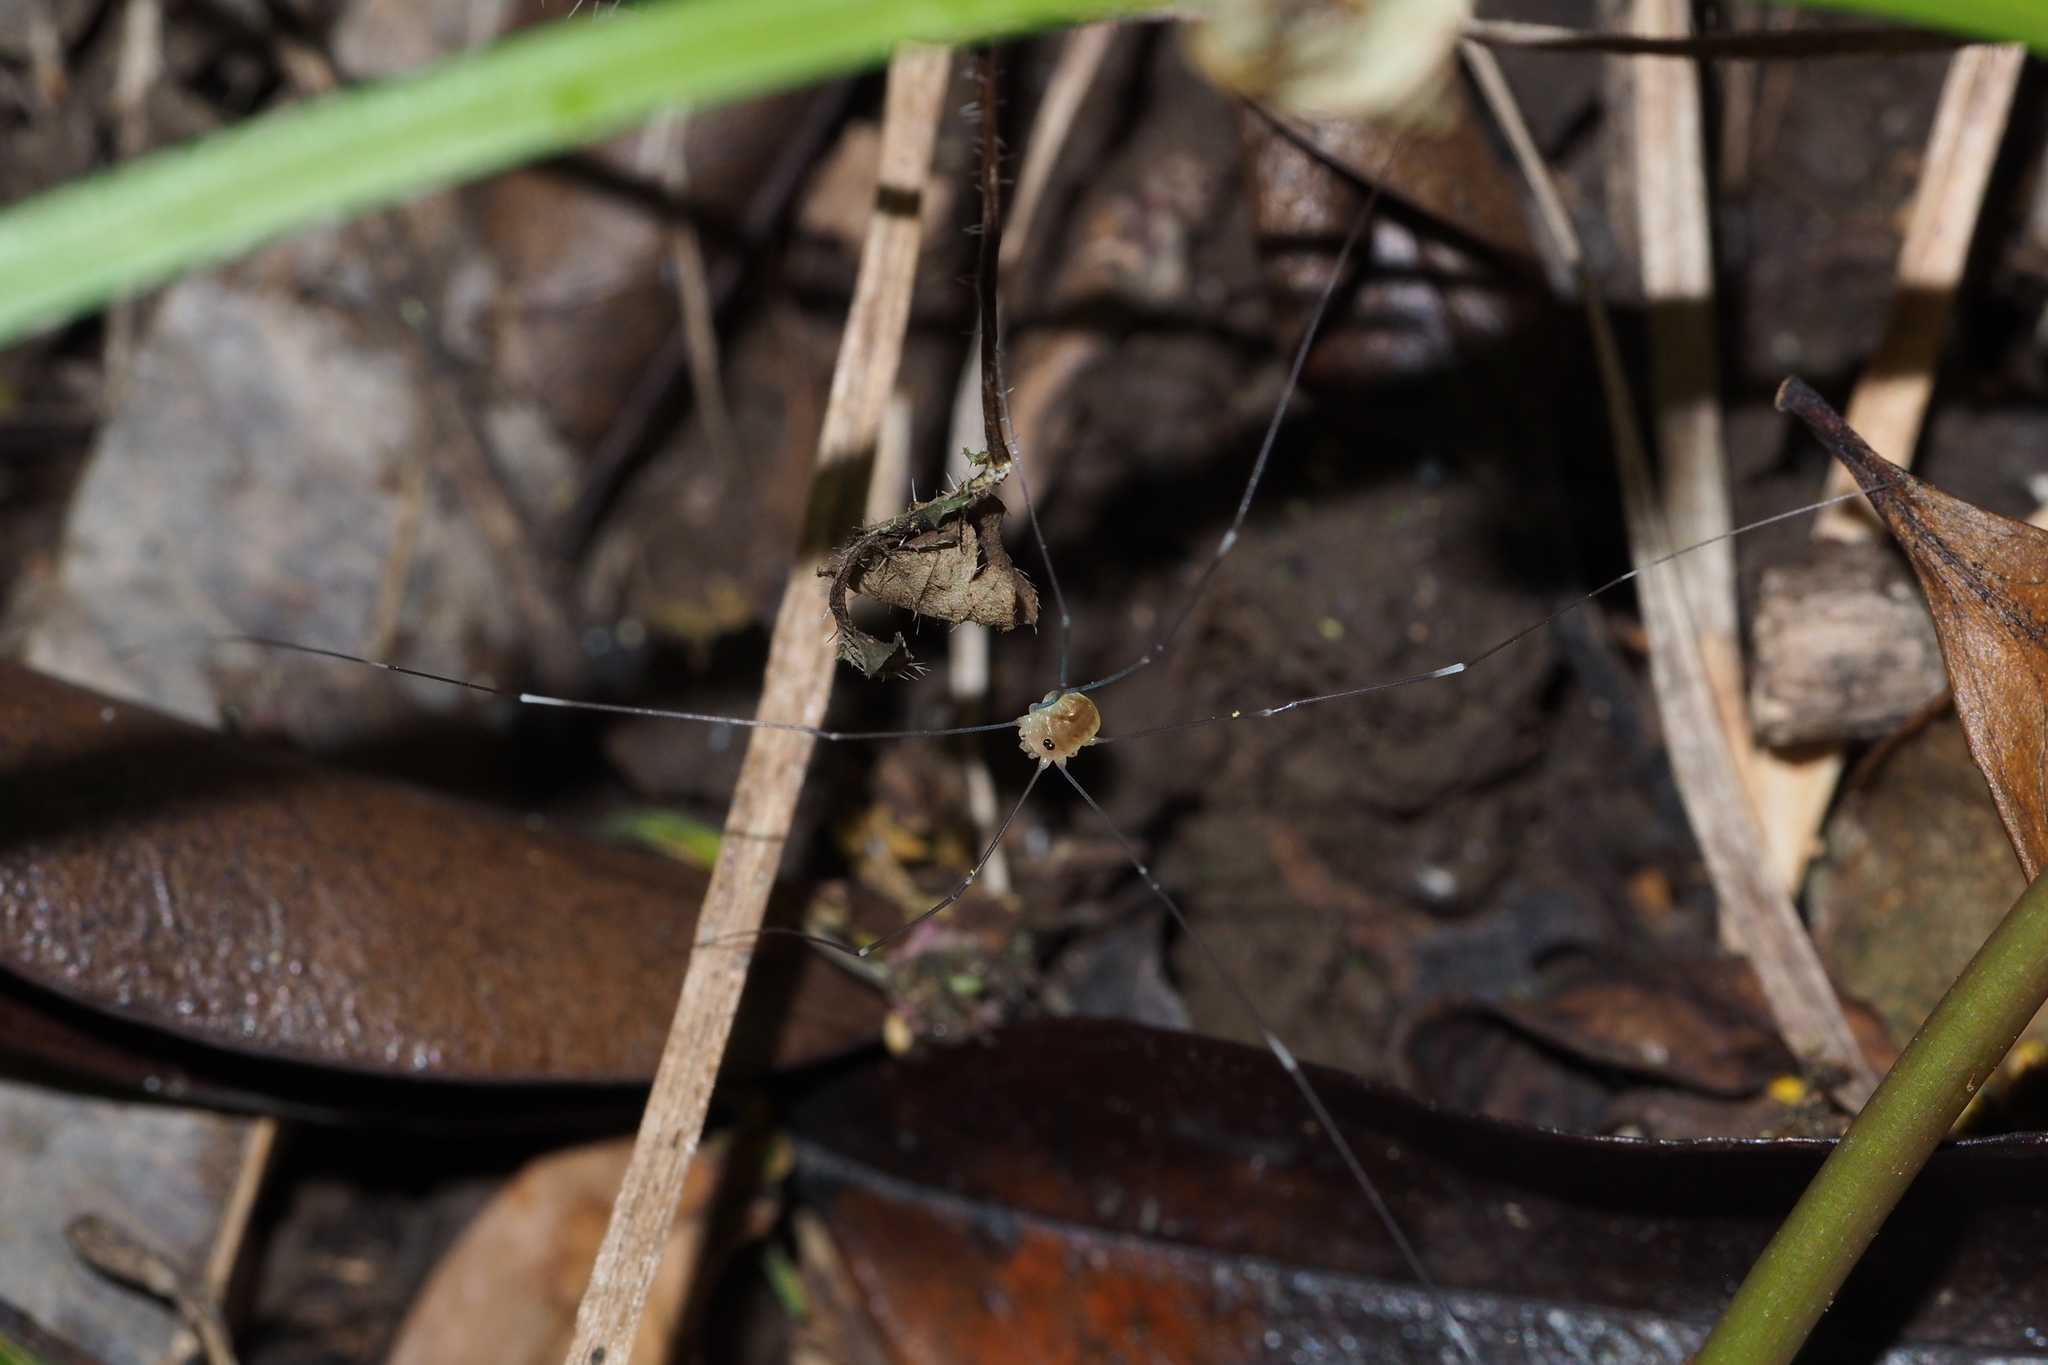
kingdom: Animalia
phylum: Arthropoda
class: Arachnida
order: Opiliones
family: Sclerosomatidae
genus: Leiobunum
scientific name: Leiobunum japonicum
